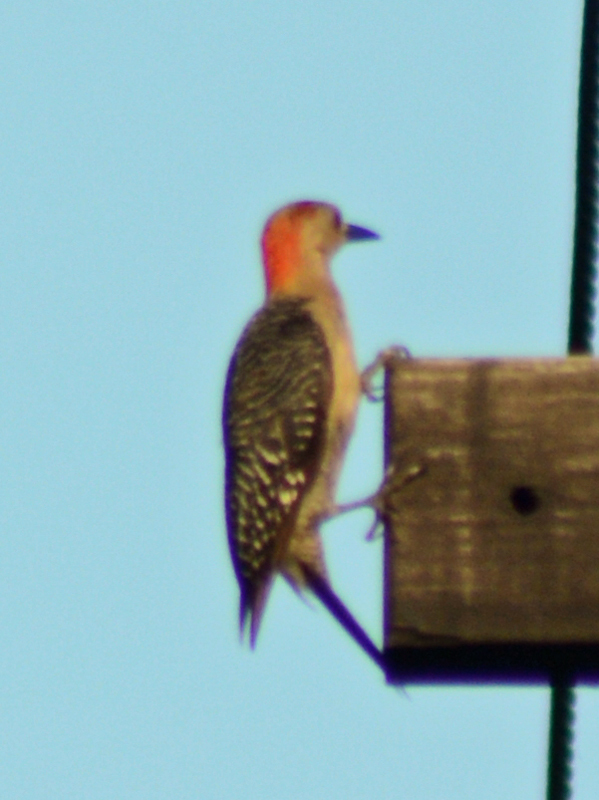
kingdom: Animalia
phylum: Chordata
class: Aves
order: Piciformes
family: Picidae
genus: Melanerpes
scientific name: Melanerpes aurifrons
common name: Golden-fronted woodpecker
